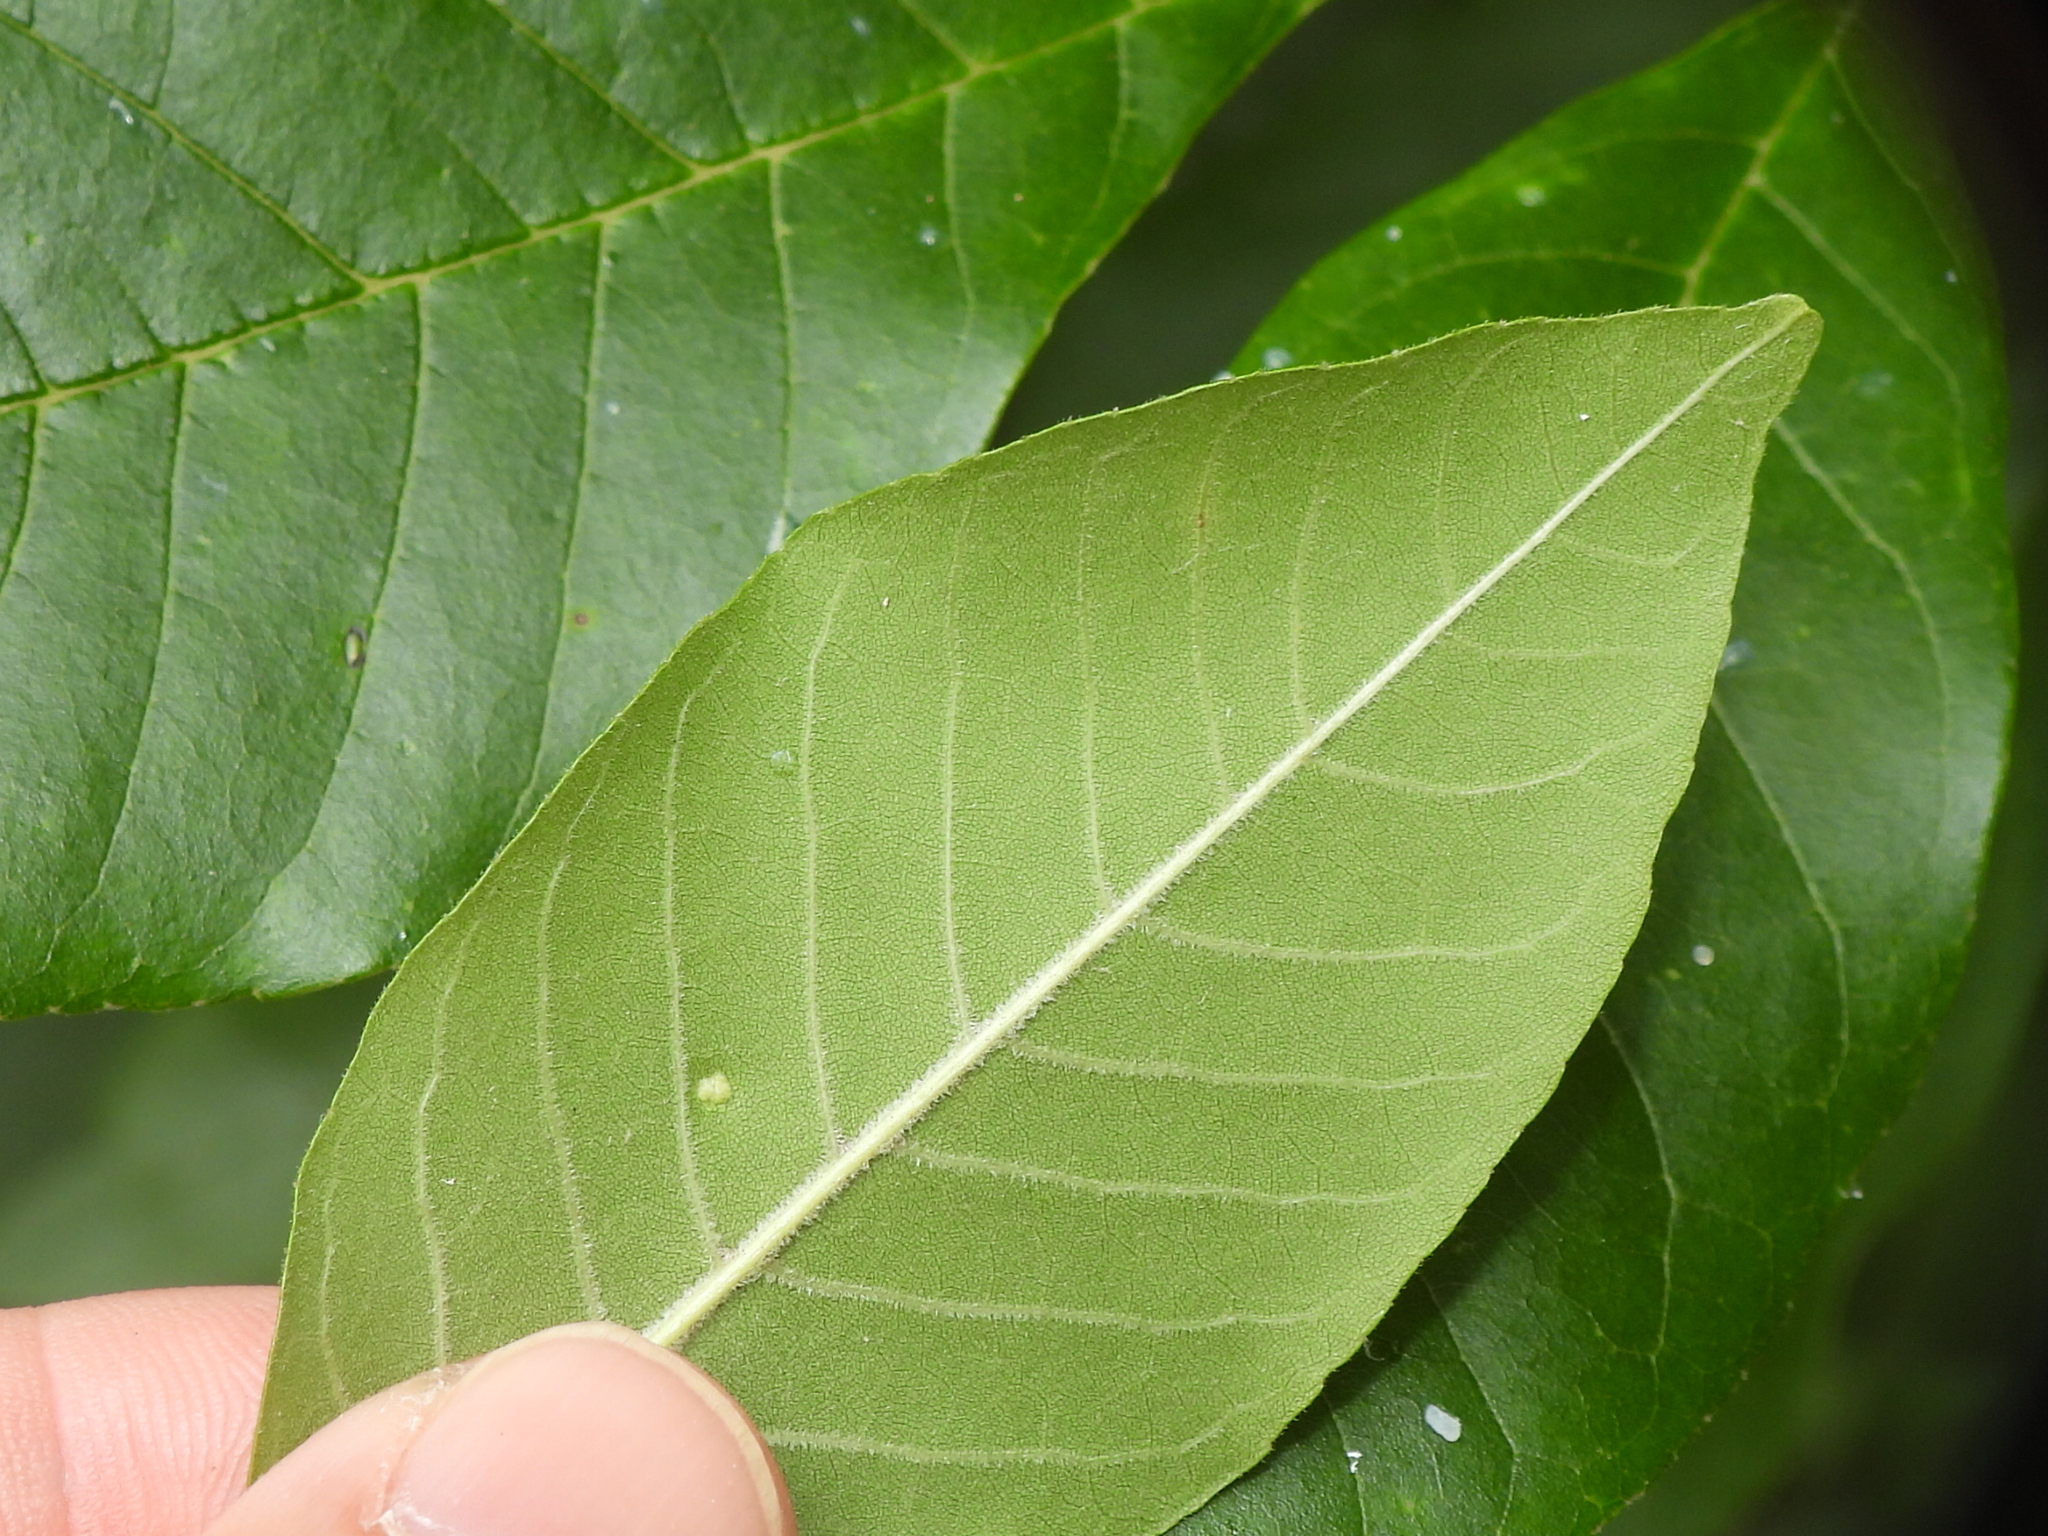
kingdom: Animalia
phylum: Arthropoda
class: Arachnida
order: Trombidiformes
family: Eriophyidae
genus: Aceria
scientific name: Aceria fraxinicola
